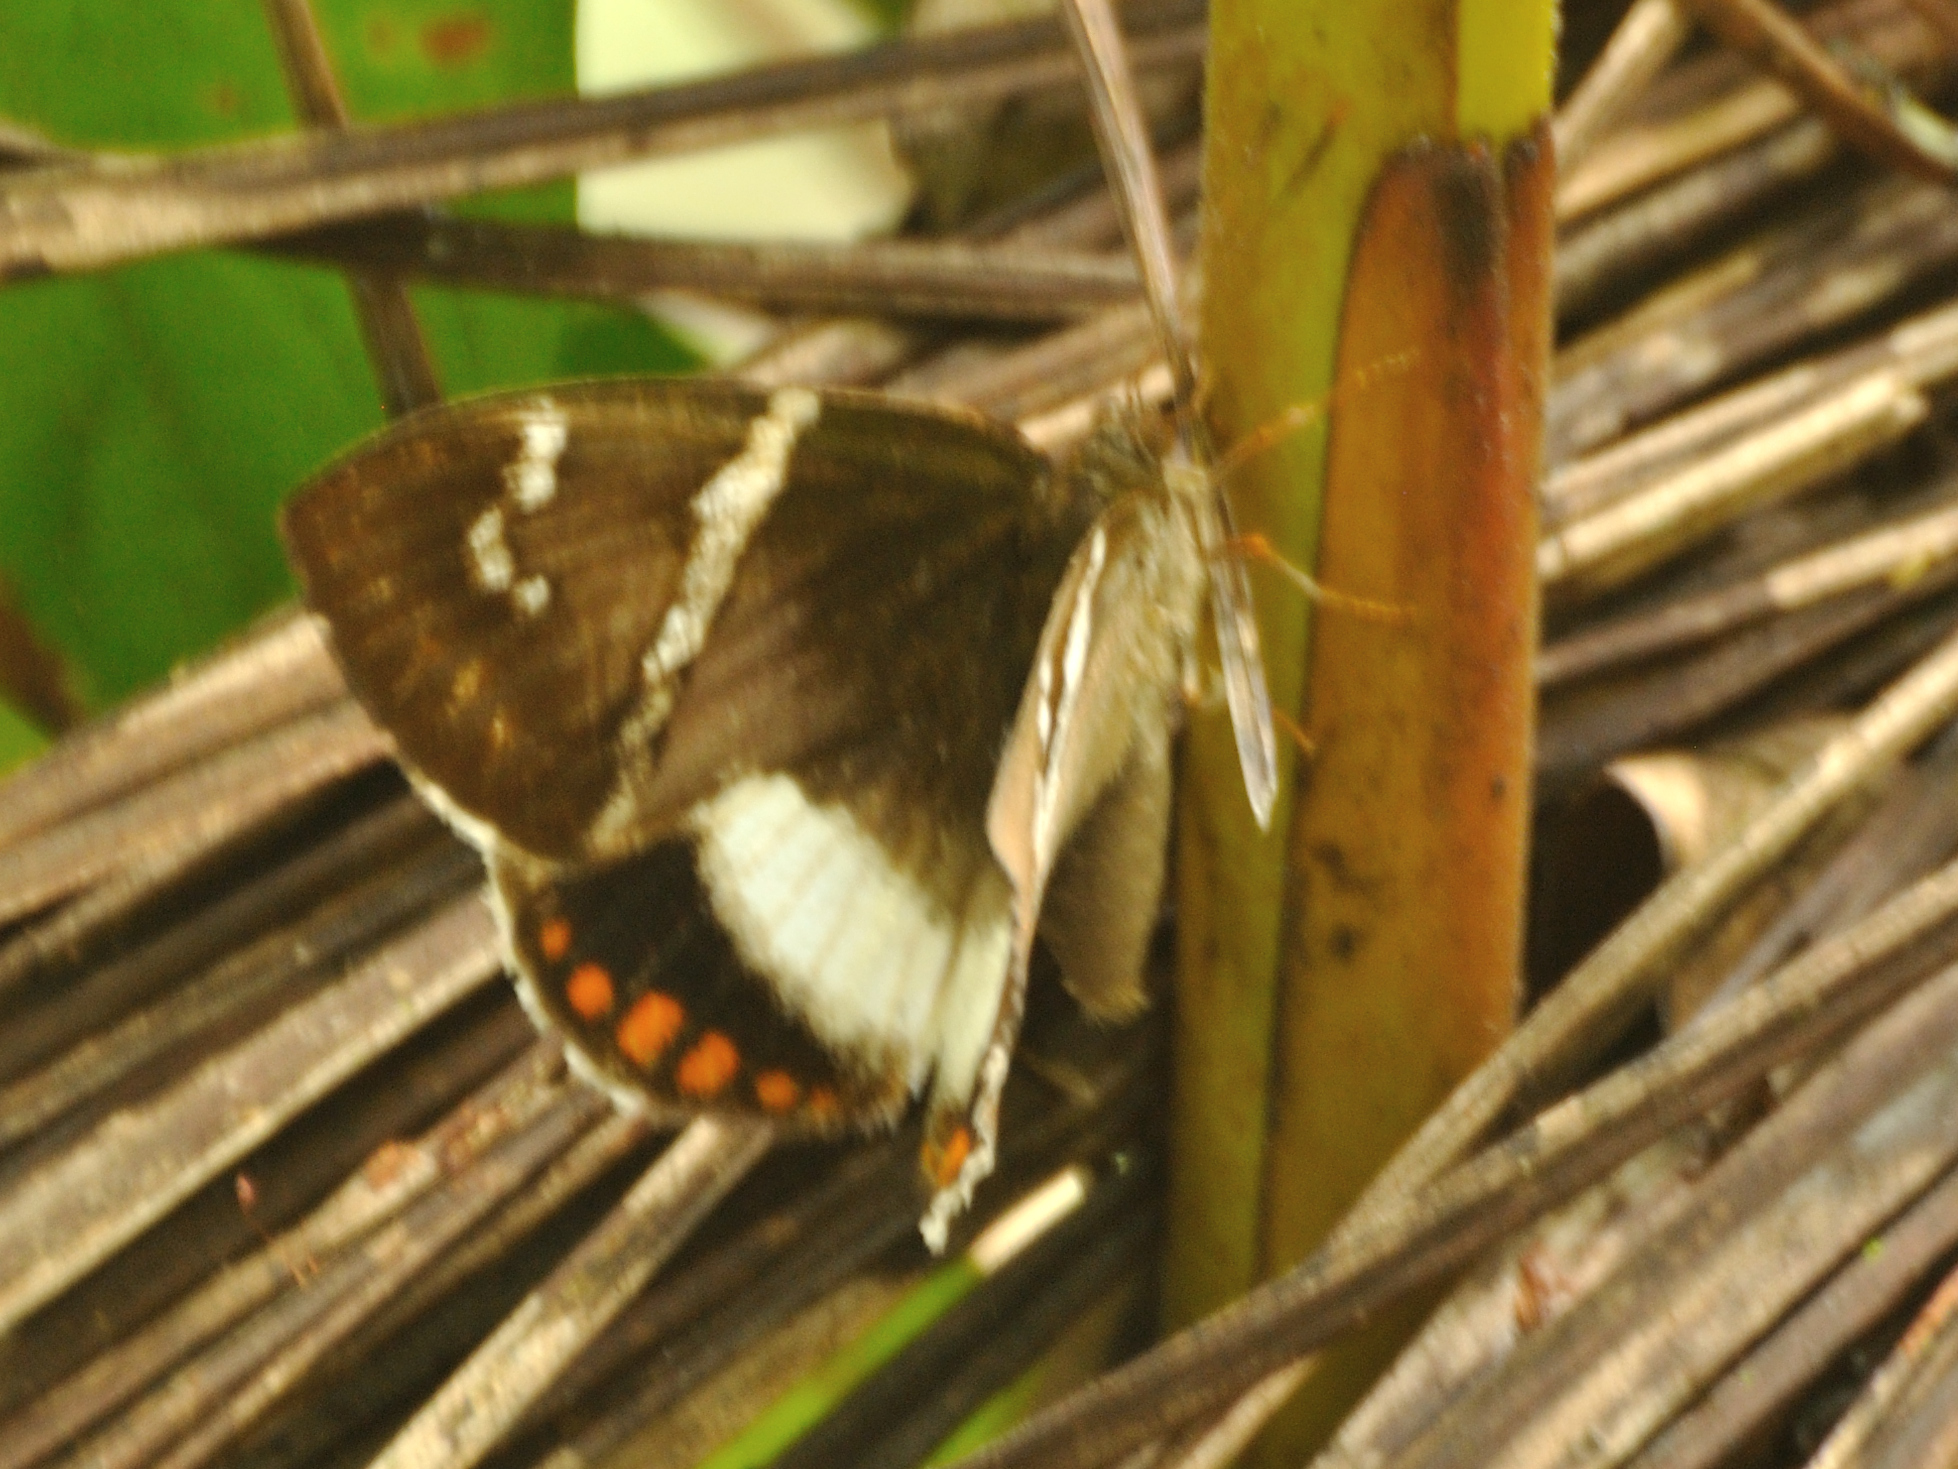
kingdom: Animalia
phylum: Arthropoda
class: Insecta
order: Lepidoptera
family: Castniidae
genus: Castnia
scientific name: Castnia licus
